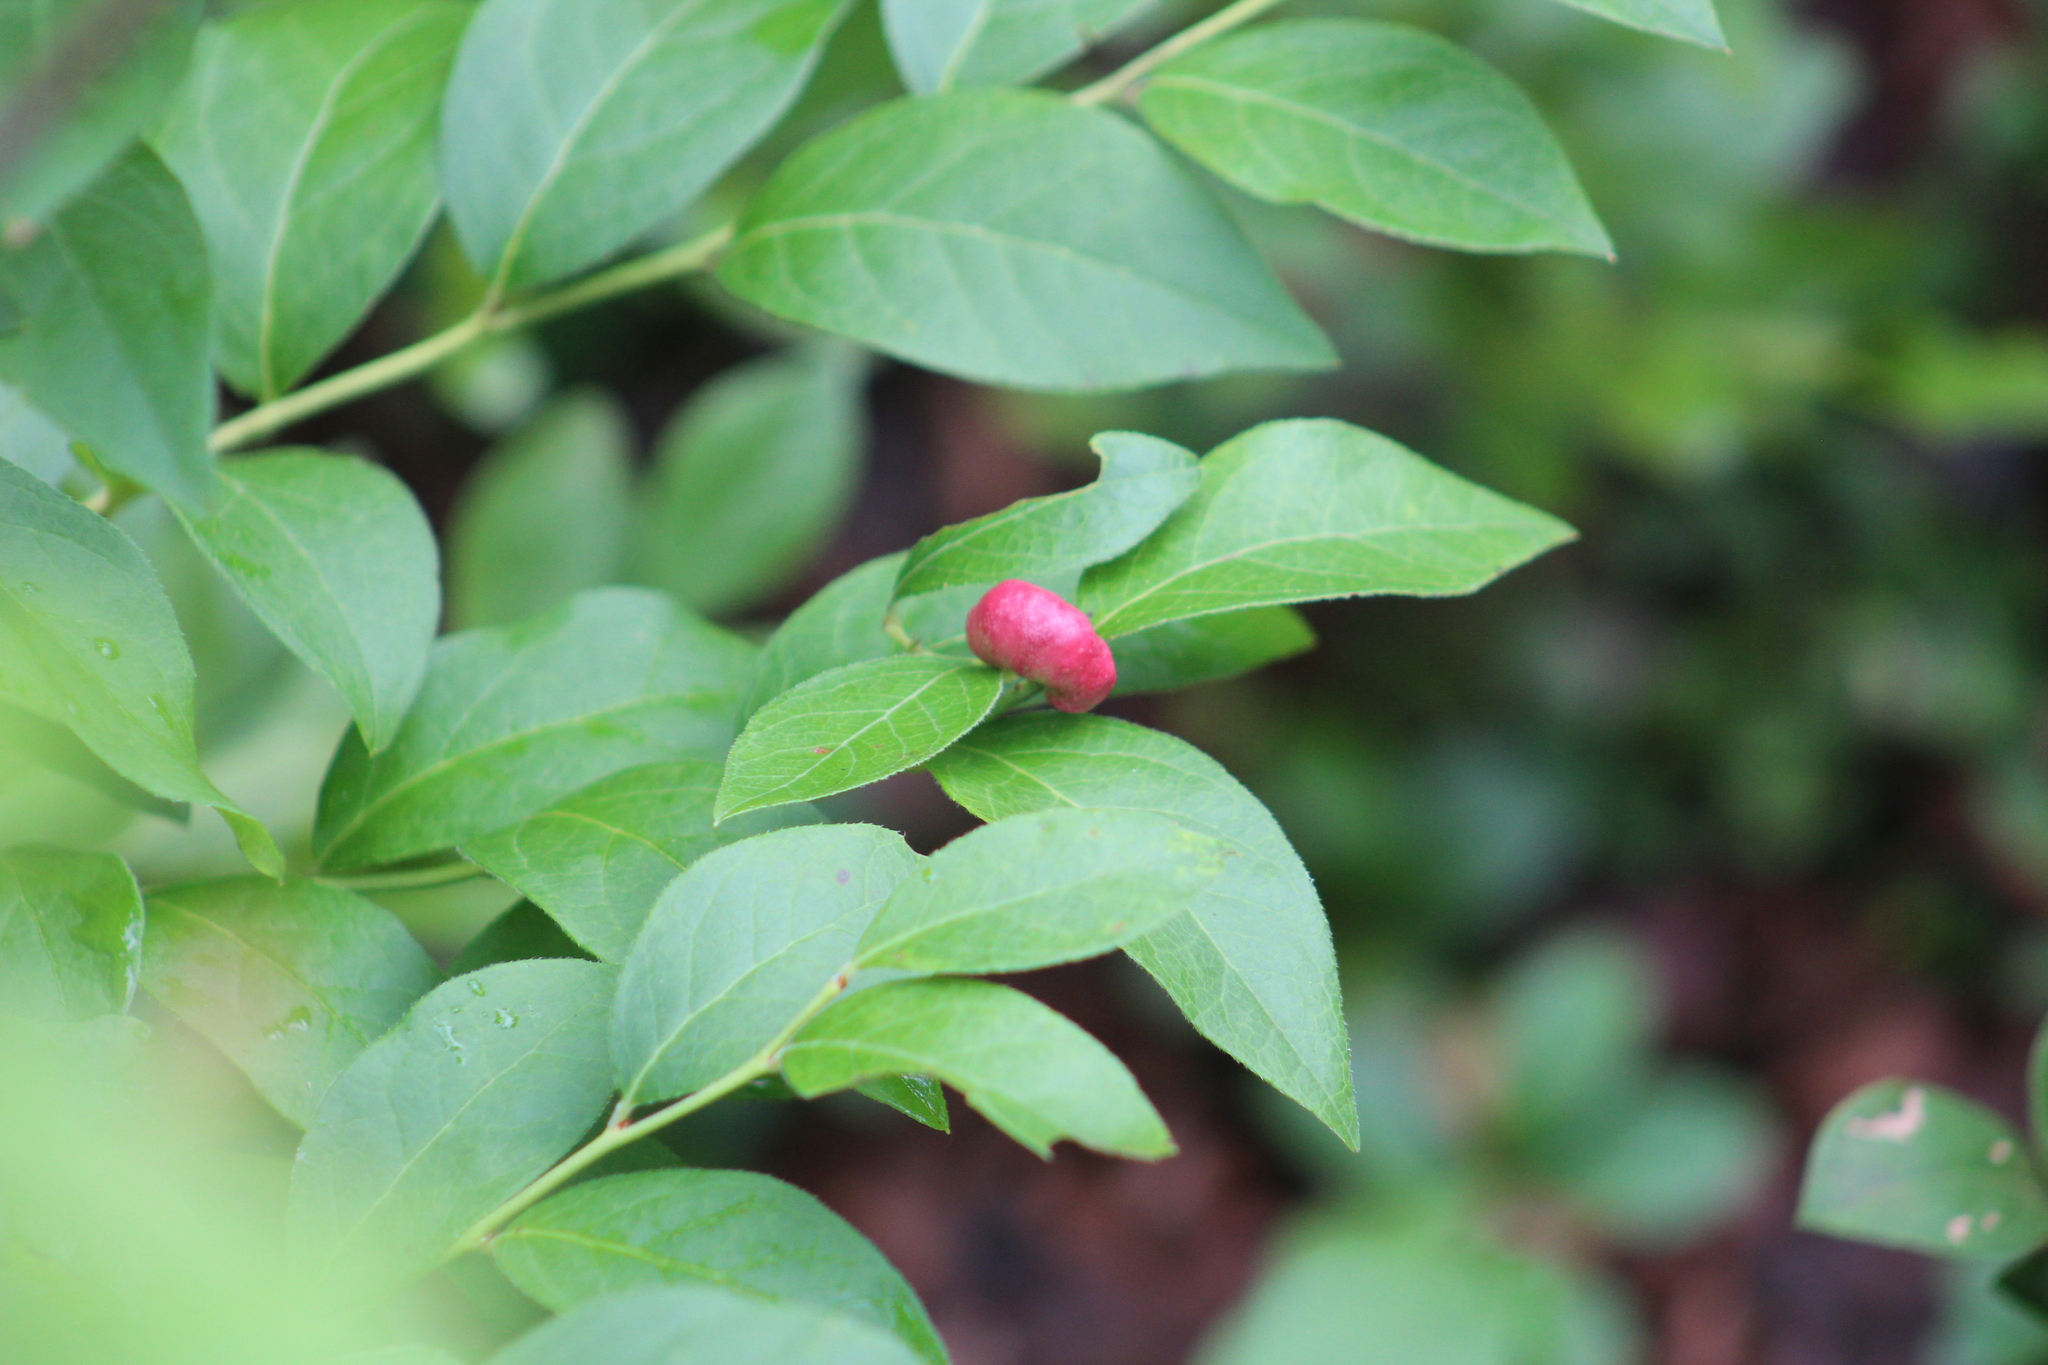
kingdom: Animalia
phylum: Arthropoda
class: Insecta
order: Hymenoptera
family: Pteromalidae
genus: Hemadas
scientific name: Hemadas nubilipennis
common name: Blueberry stem gall wasp
